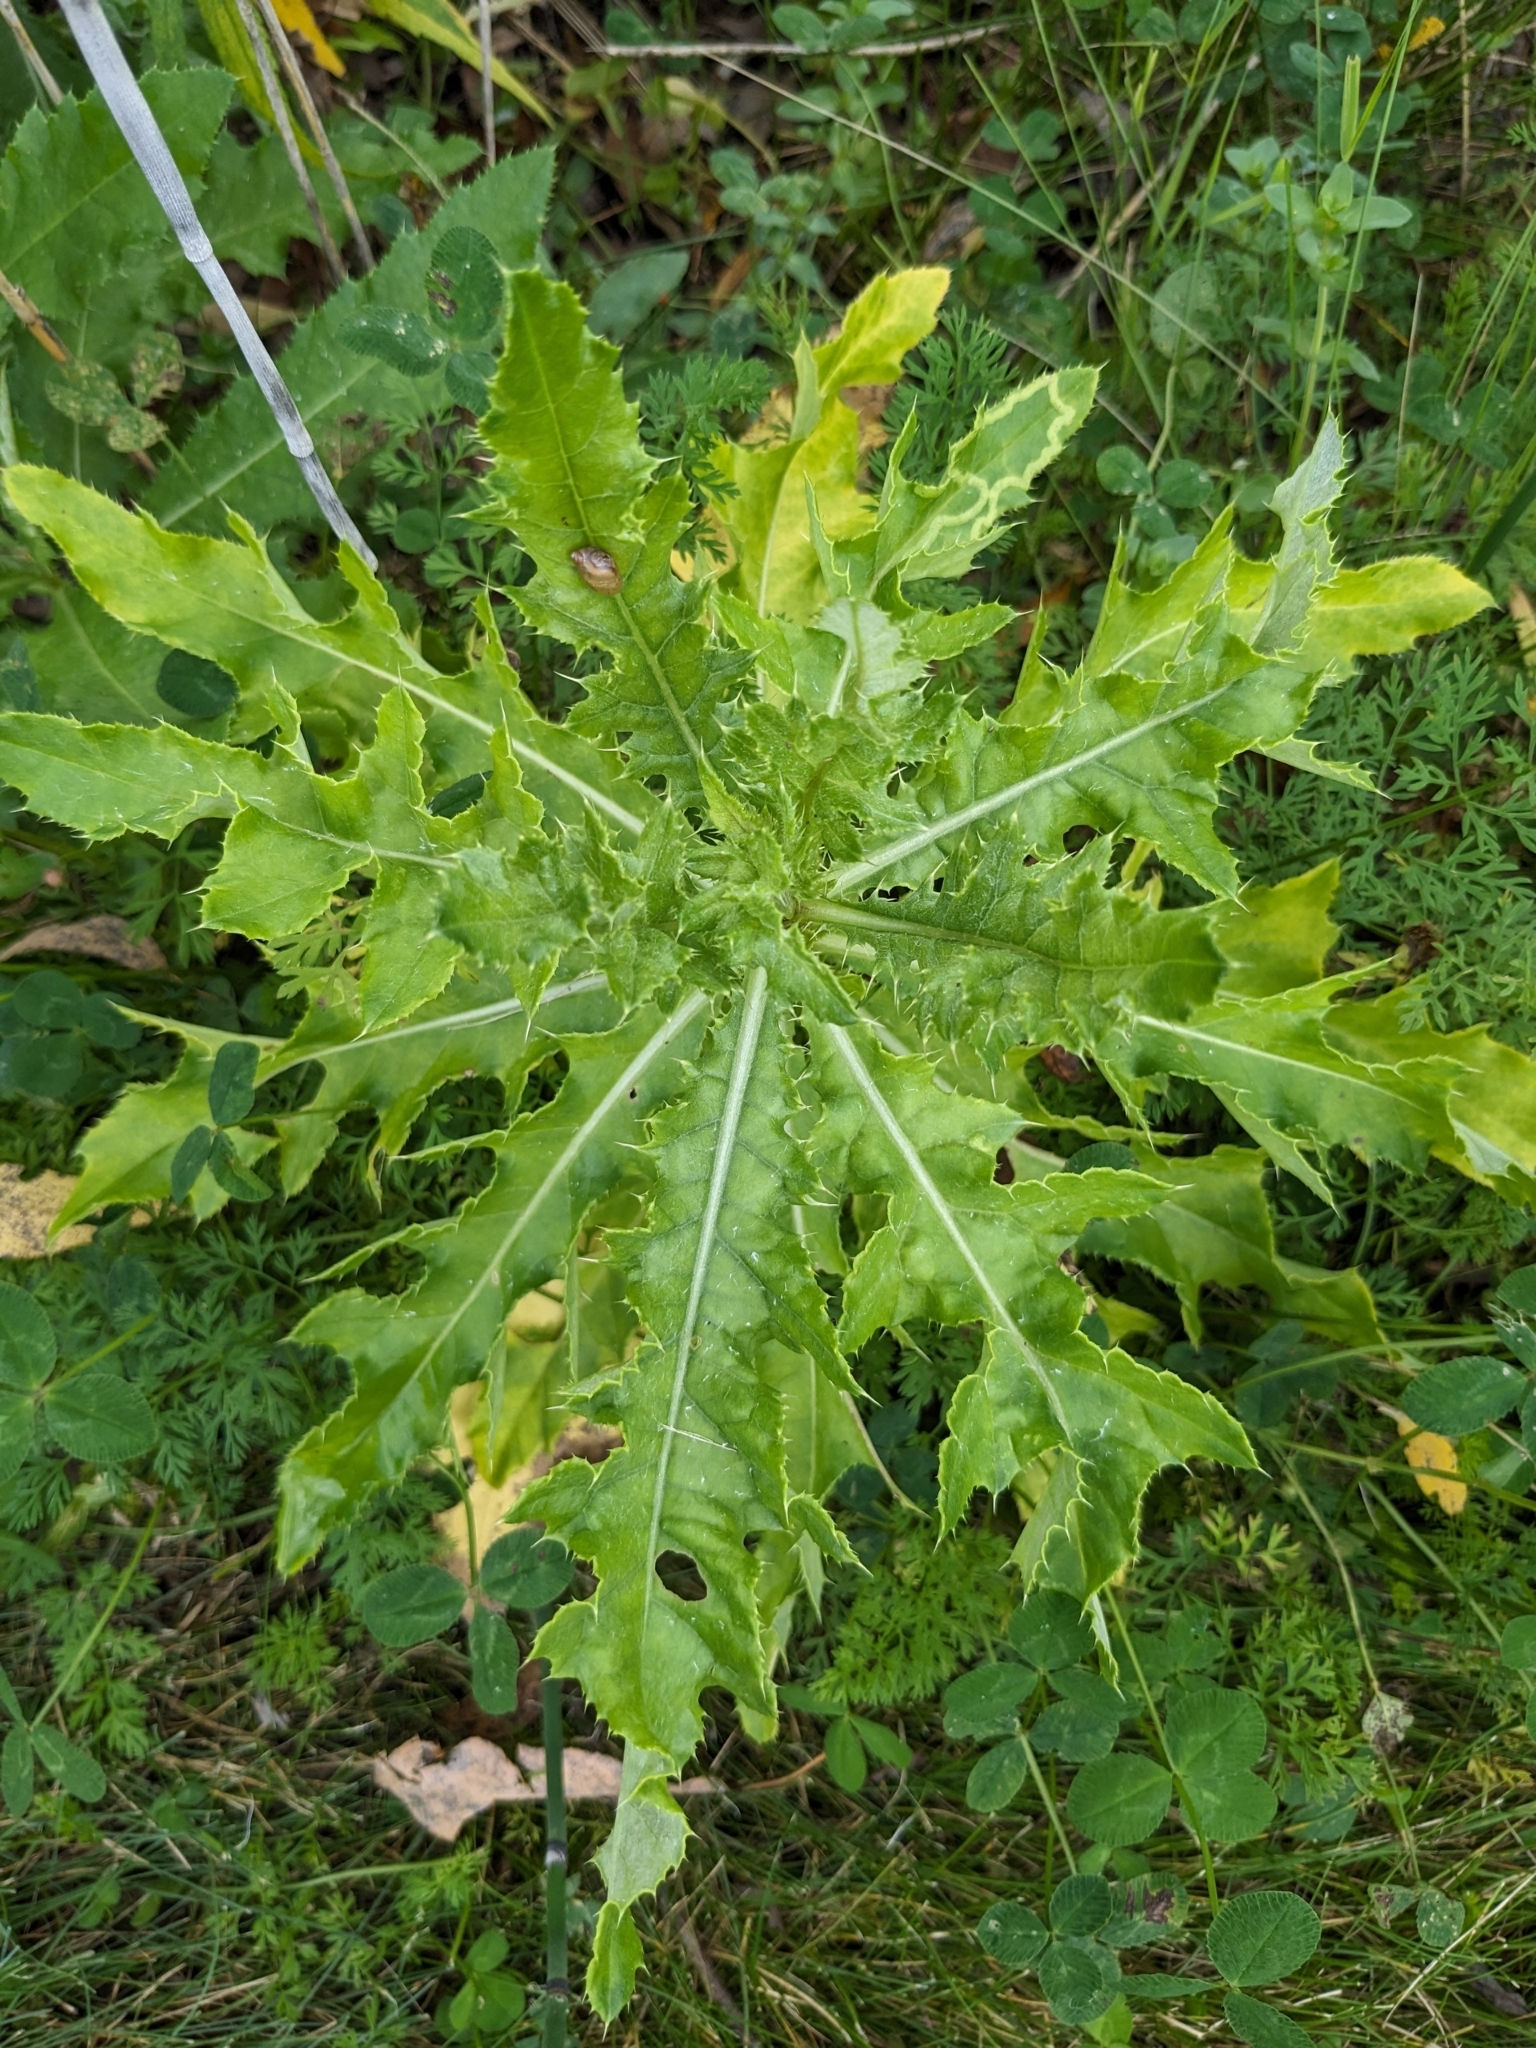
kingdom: Plantae
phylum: Tracheophyta
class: Magnoliopsida
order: Asterales
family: Asteraceae
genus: Cirsium
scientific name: Cirsium arvense
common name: Creeping thistle
